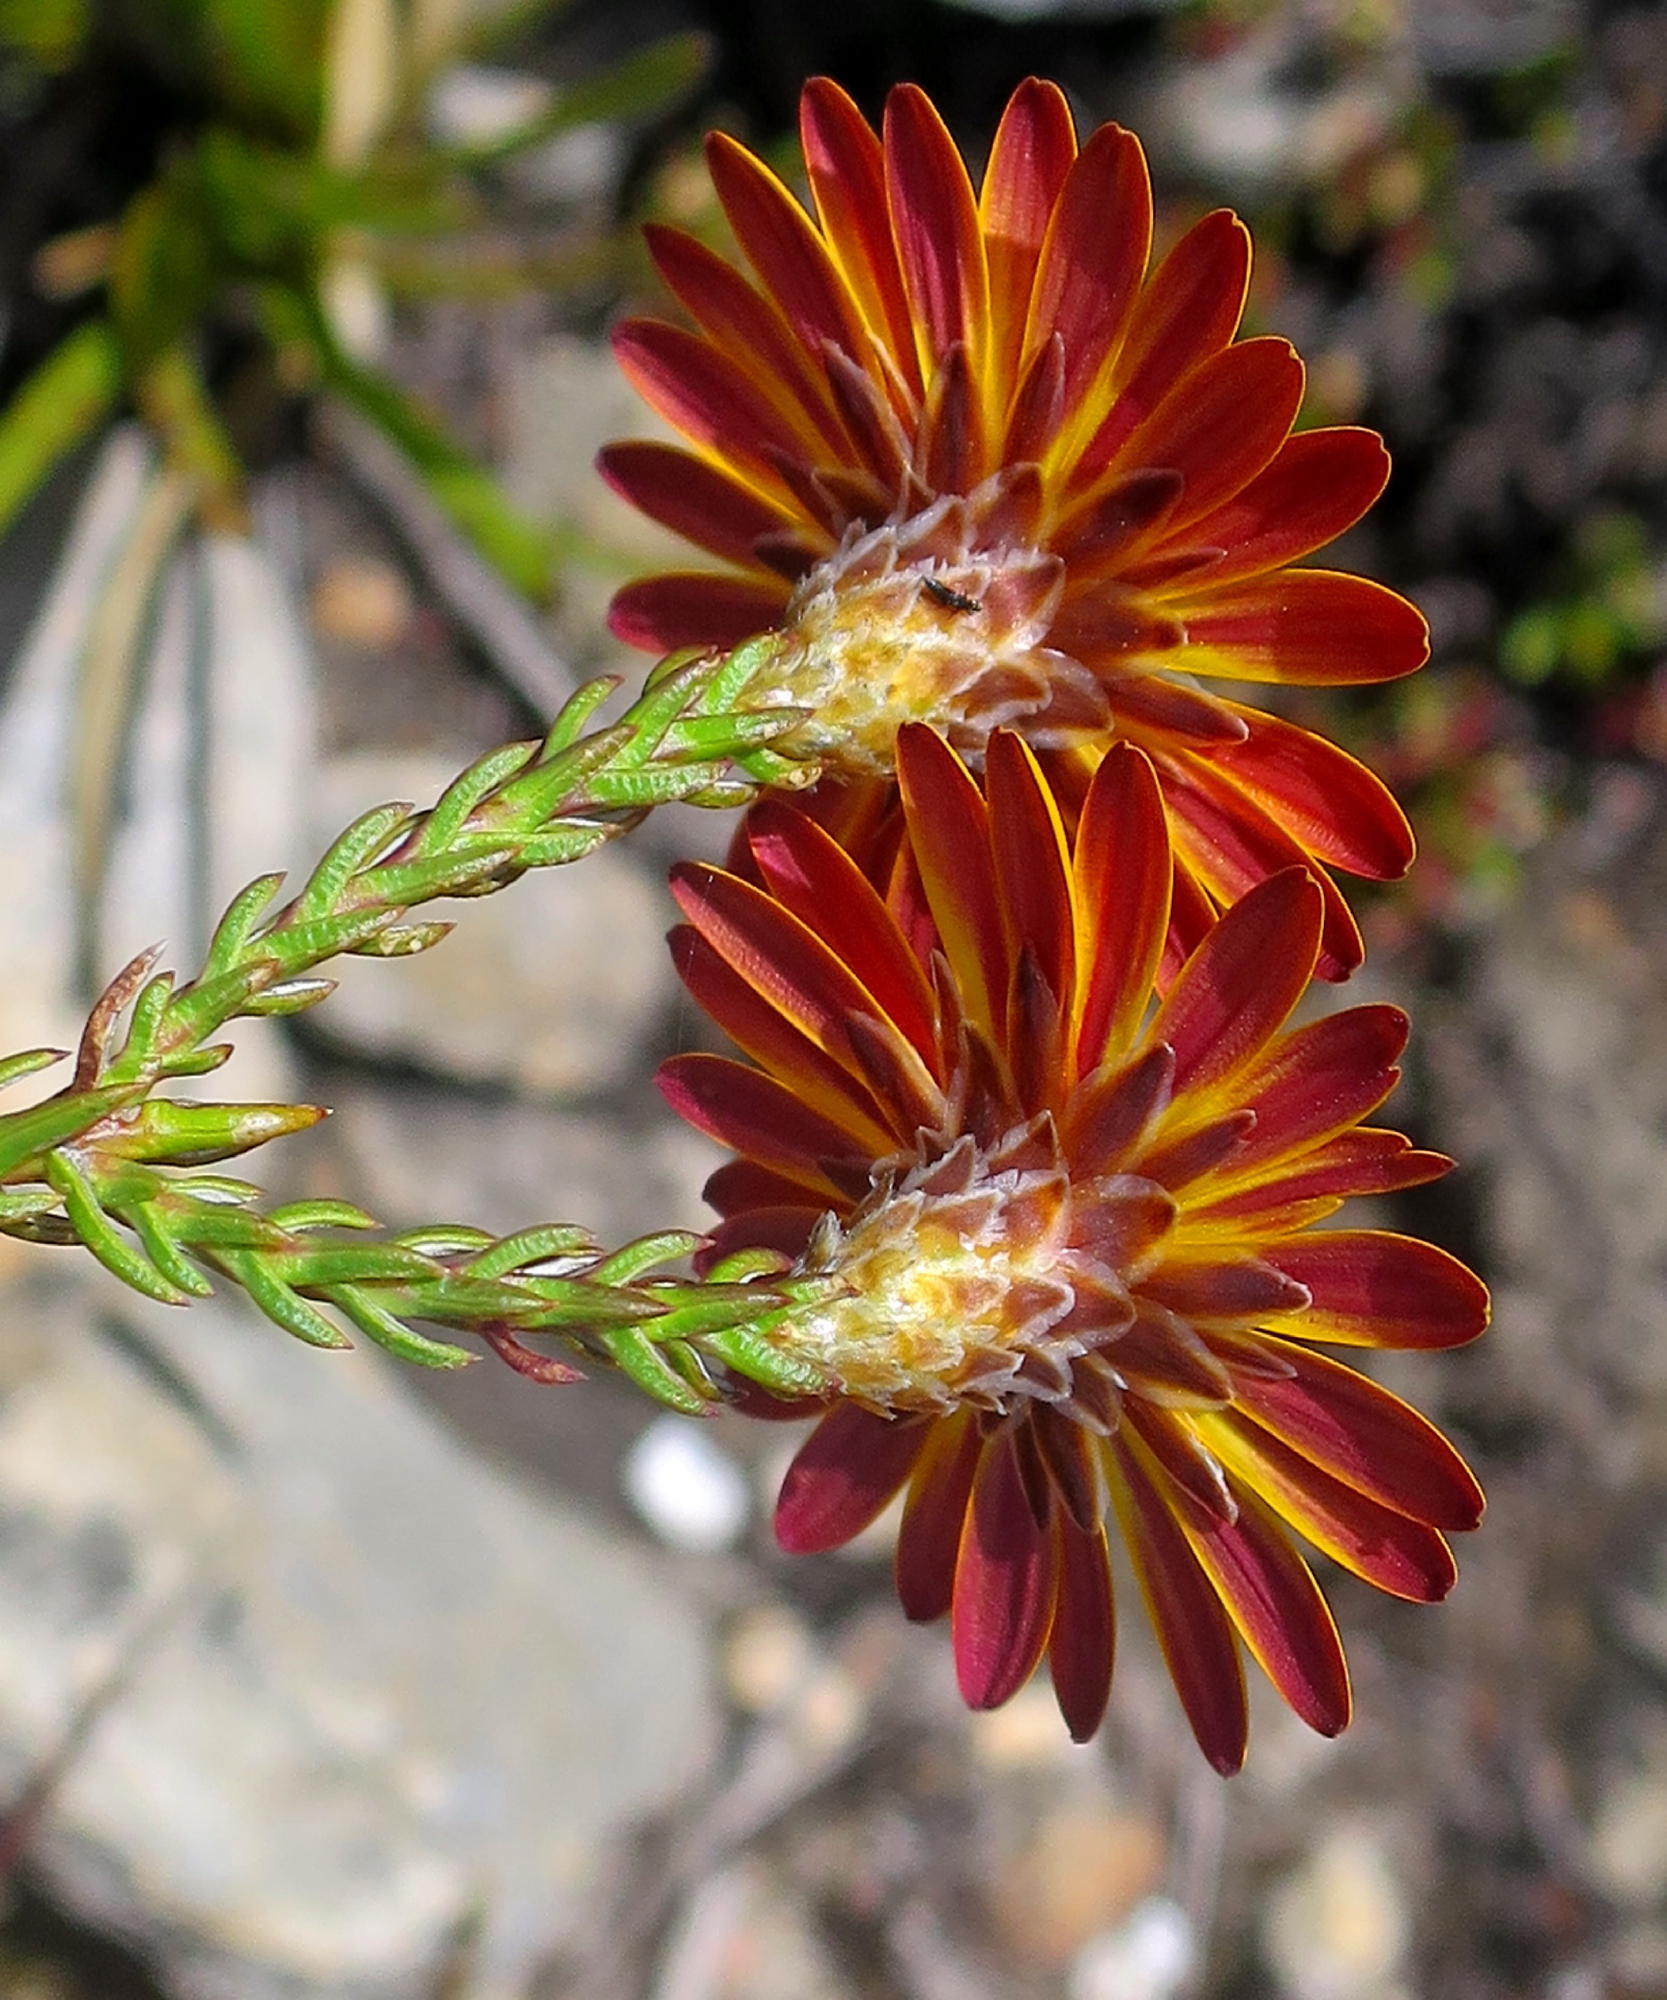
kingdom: Plantae
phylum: Tracheophyta
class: Magnoliopsida
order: Asterales
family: Asteraceae
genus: Oedera
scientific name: Oedera decussata
